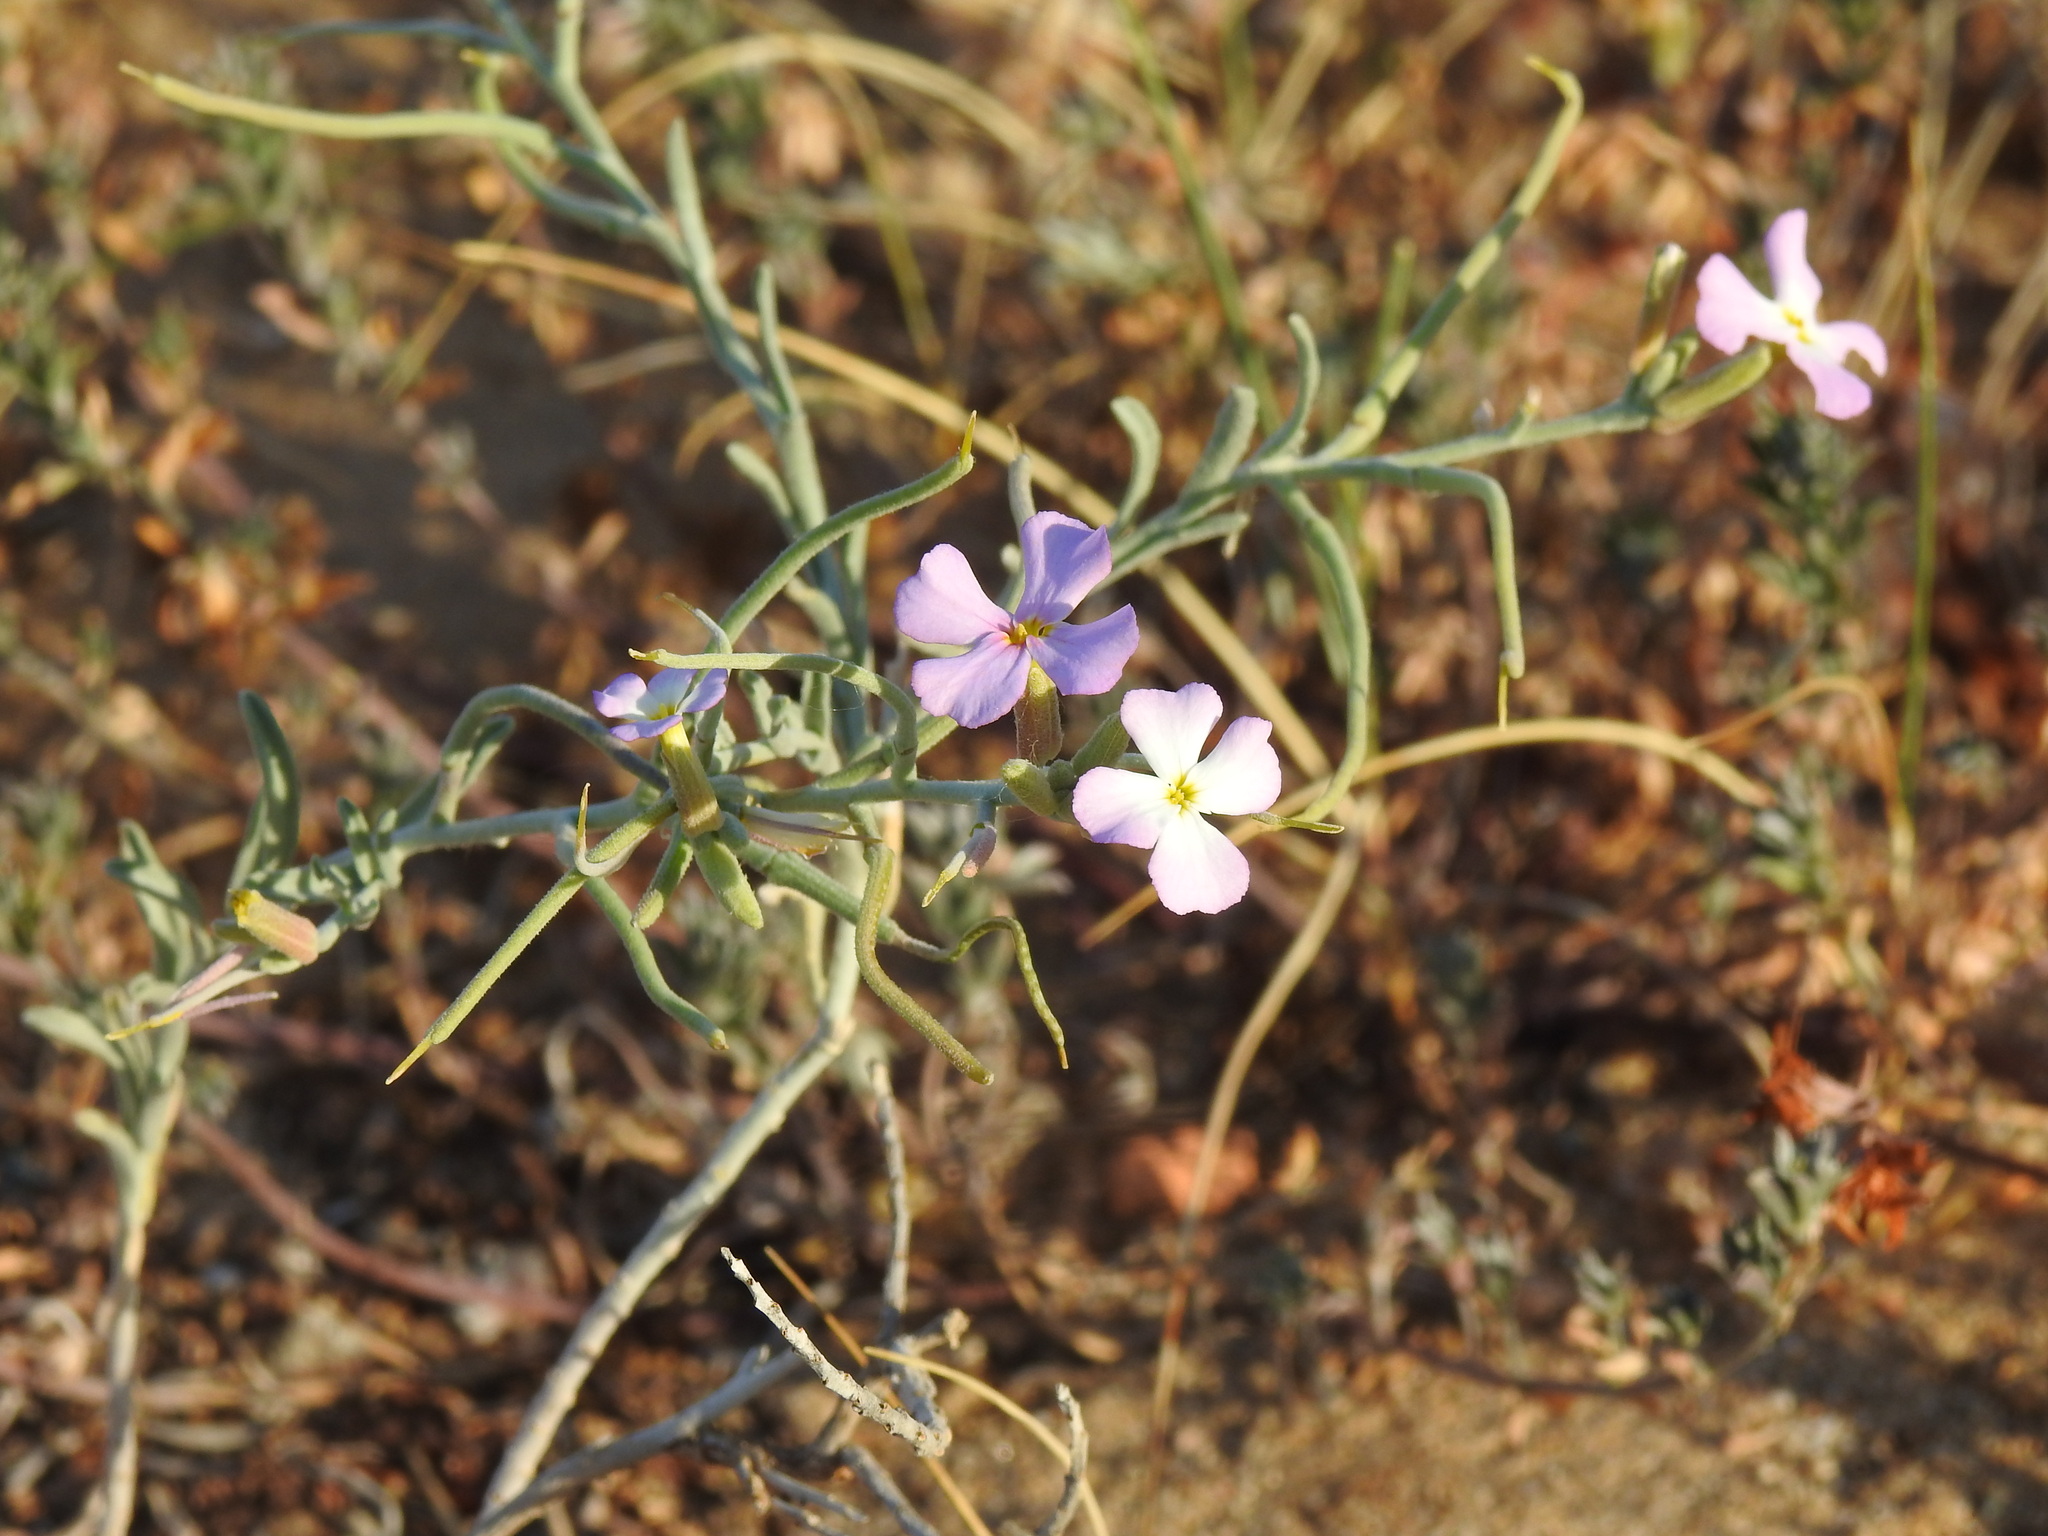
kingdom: Plantae
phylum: Tracheophyta
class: Magnoliopsida
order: Brassicales
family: Brassicaceae
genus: Marcuskochia
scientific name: Marcuskochia littorea
